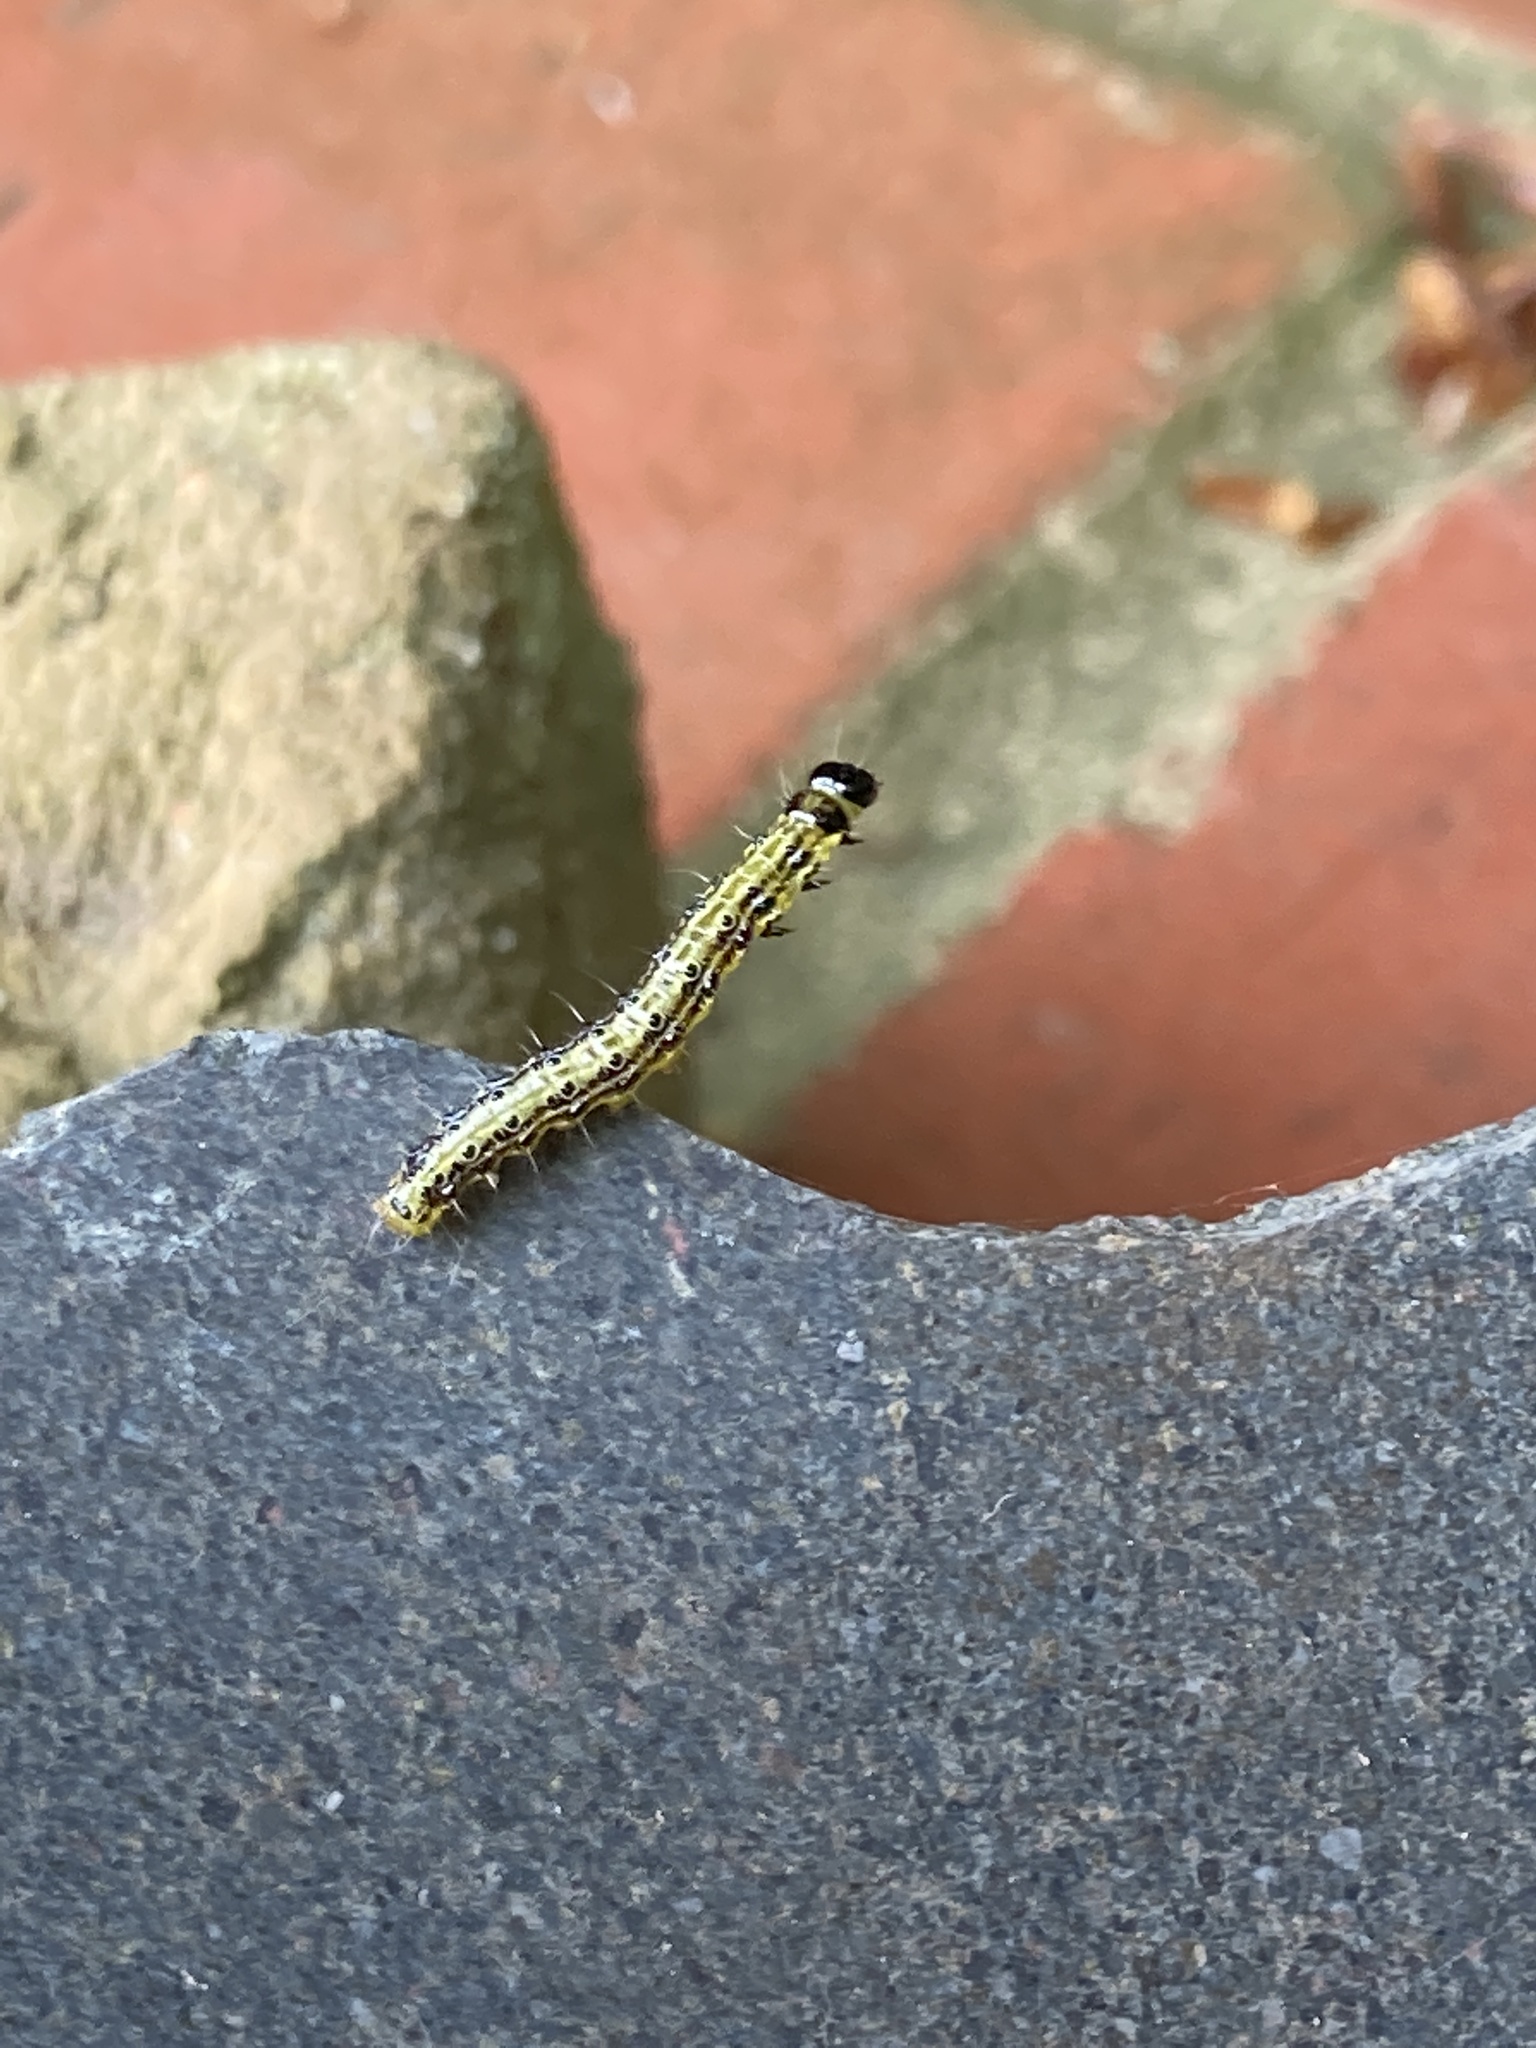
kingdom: Animalia
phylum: Arthropoda
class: Insecta
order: Lepidoptera
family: Crambidae
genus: Cydalima
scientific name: Cydalima perspectalis
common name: Box tree moth
